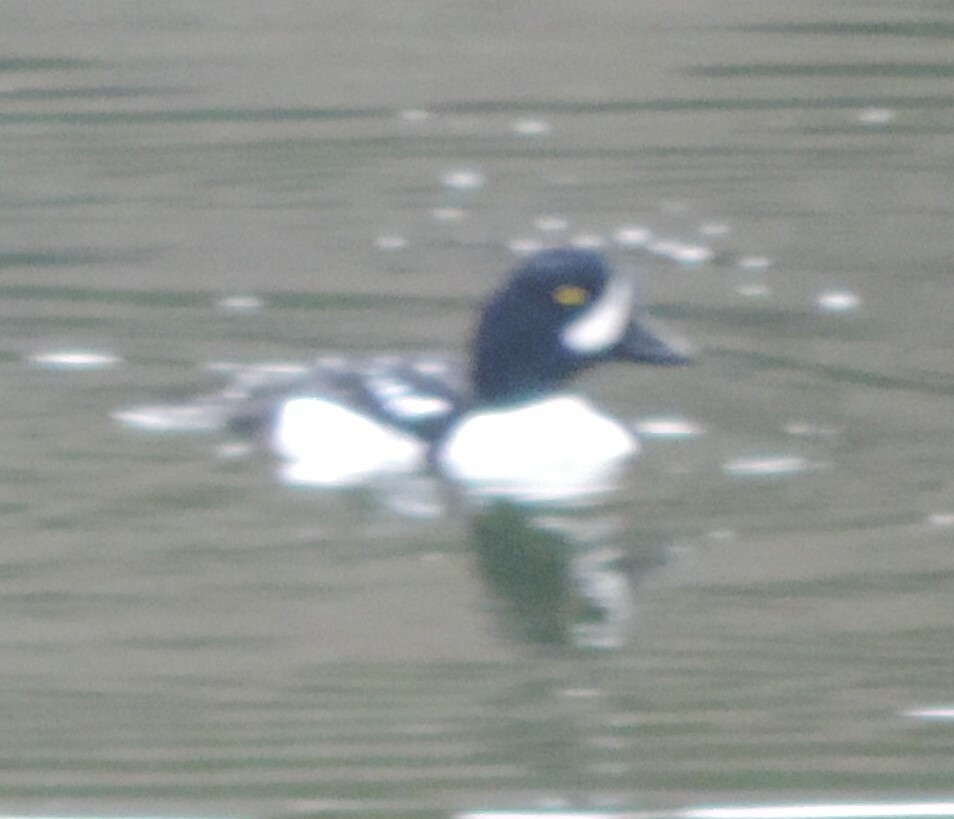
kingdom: Animalia
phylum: Chordata
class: Aves
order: Anseriformes
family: Anatidae
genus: Bucephala
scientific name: Bucephala islandica
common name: Barrow's goldeneye
